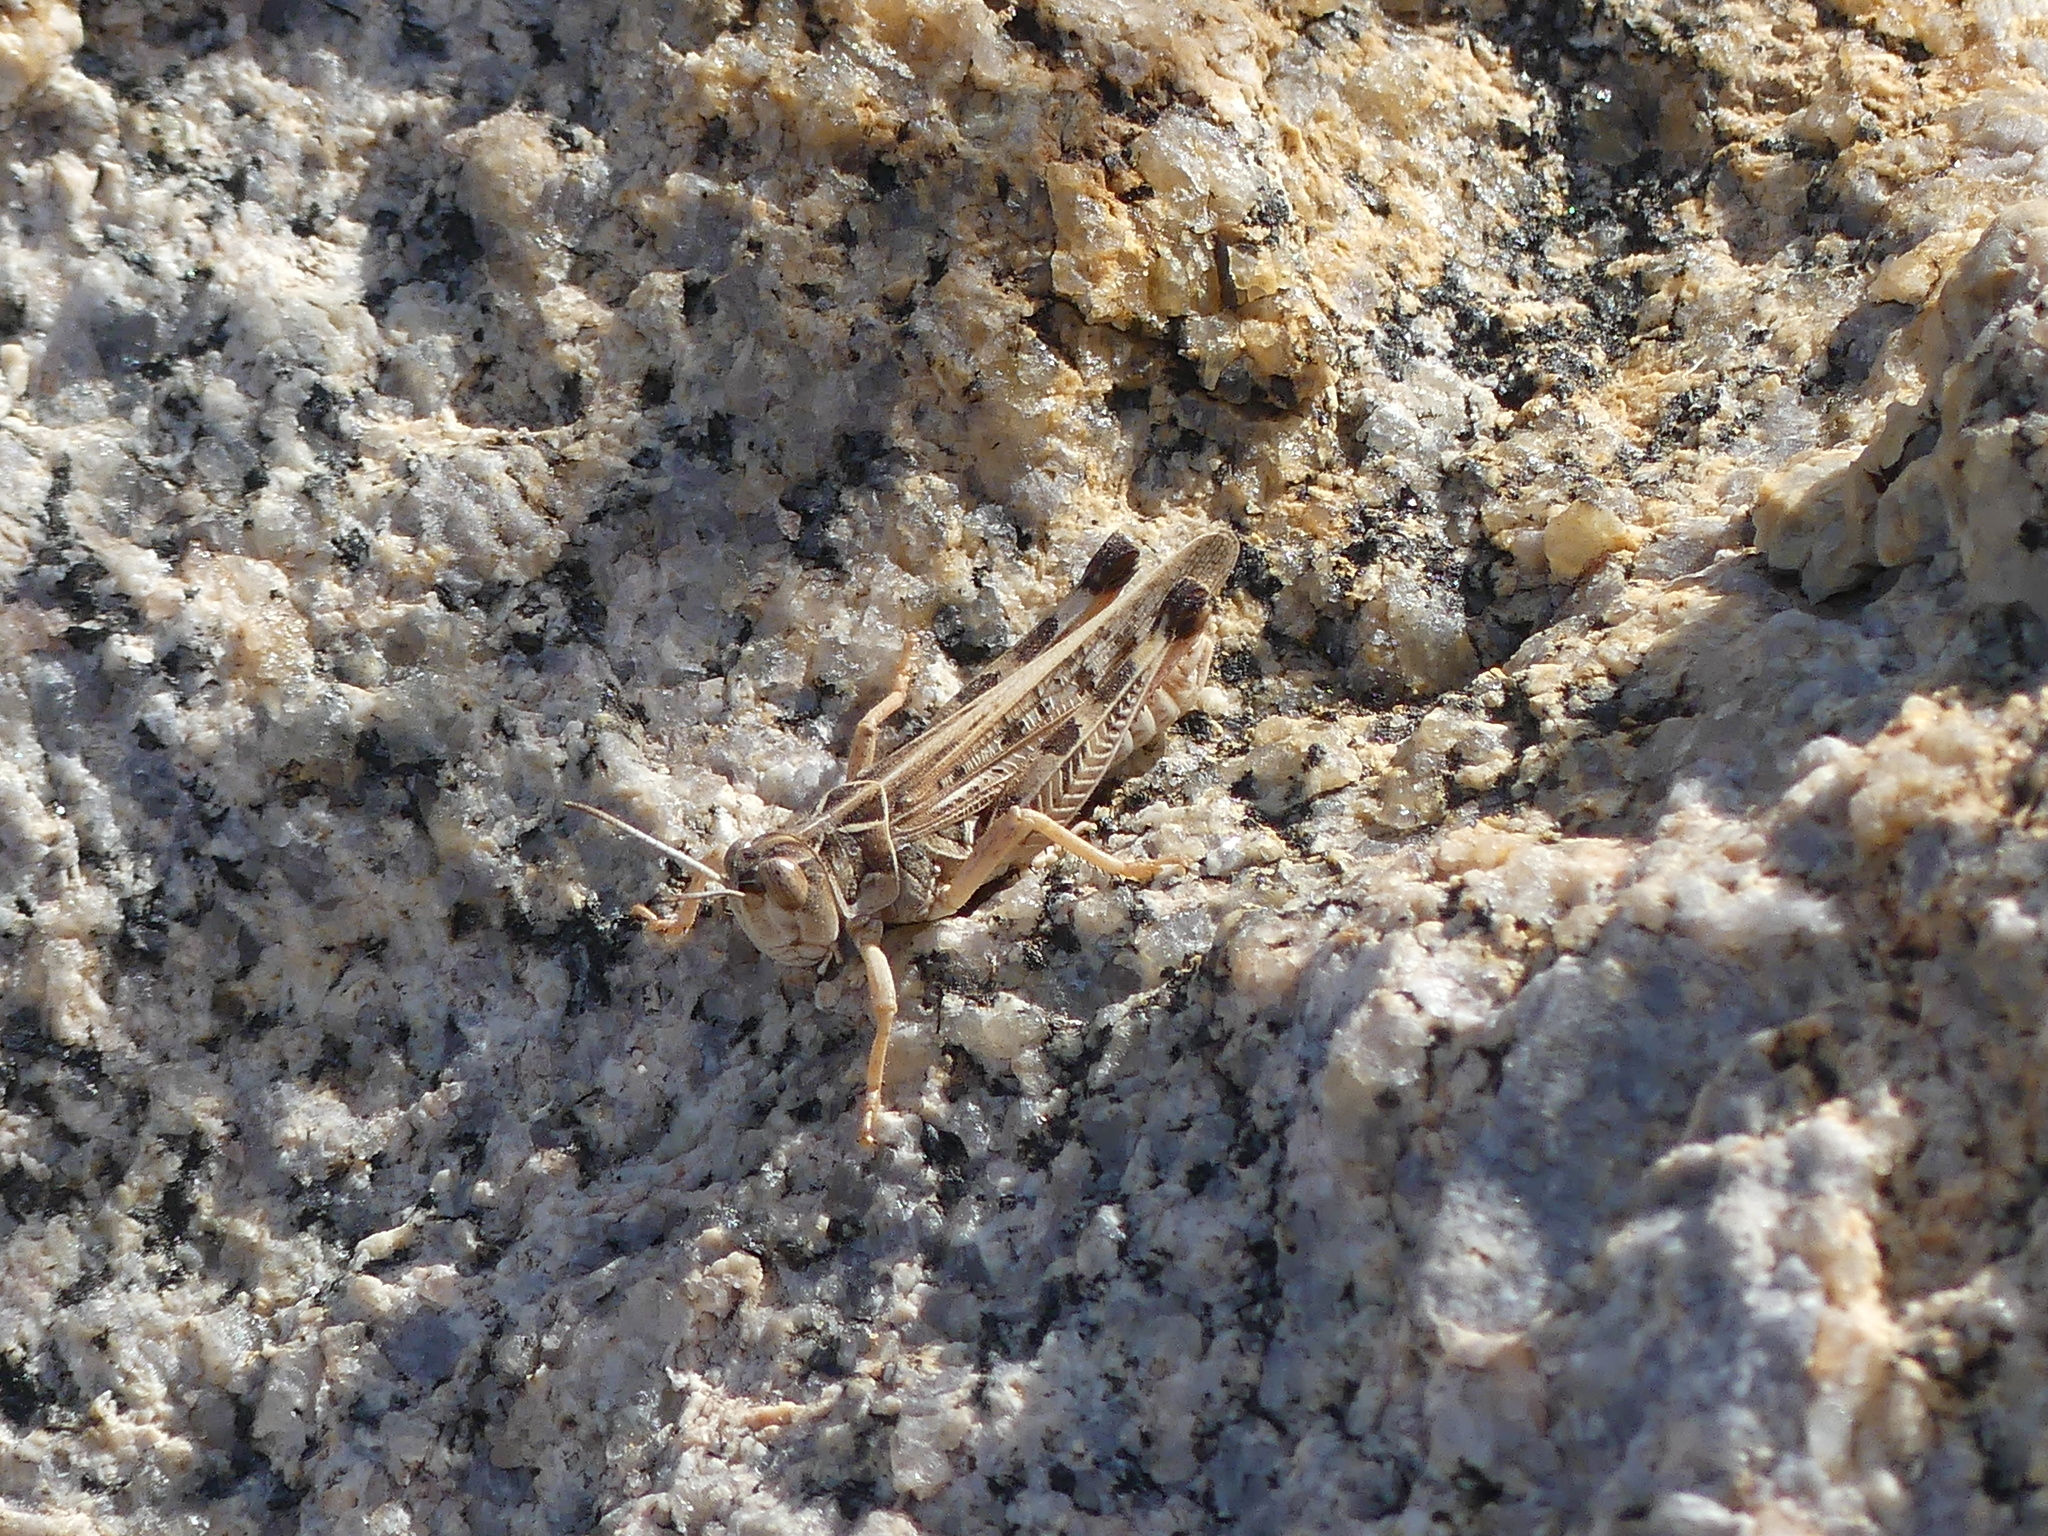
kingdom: Animalia
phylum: Arthropoda
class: Insecta
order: Orthoptera
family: Acrididae
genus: Dociostaurus
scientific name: Dociostaurus maroccanus
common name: Moroccan locust
